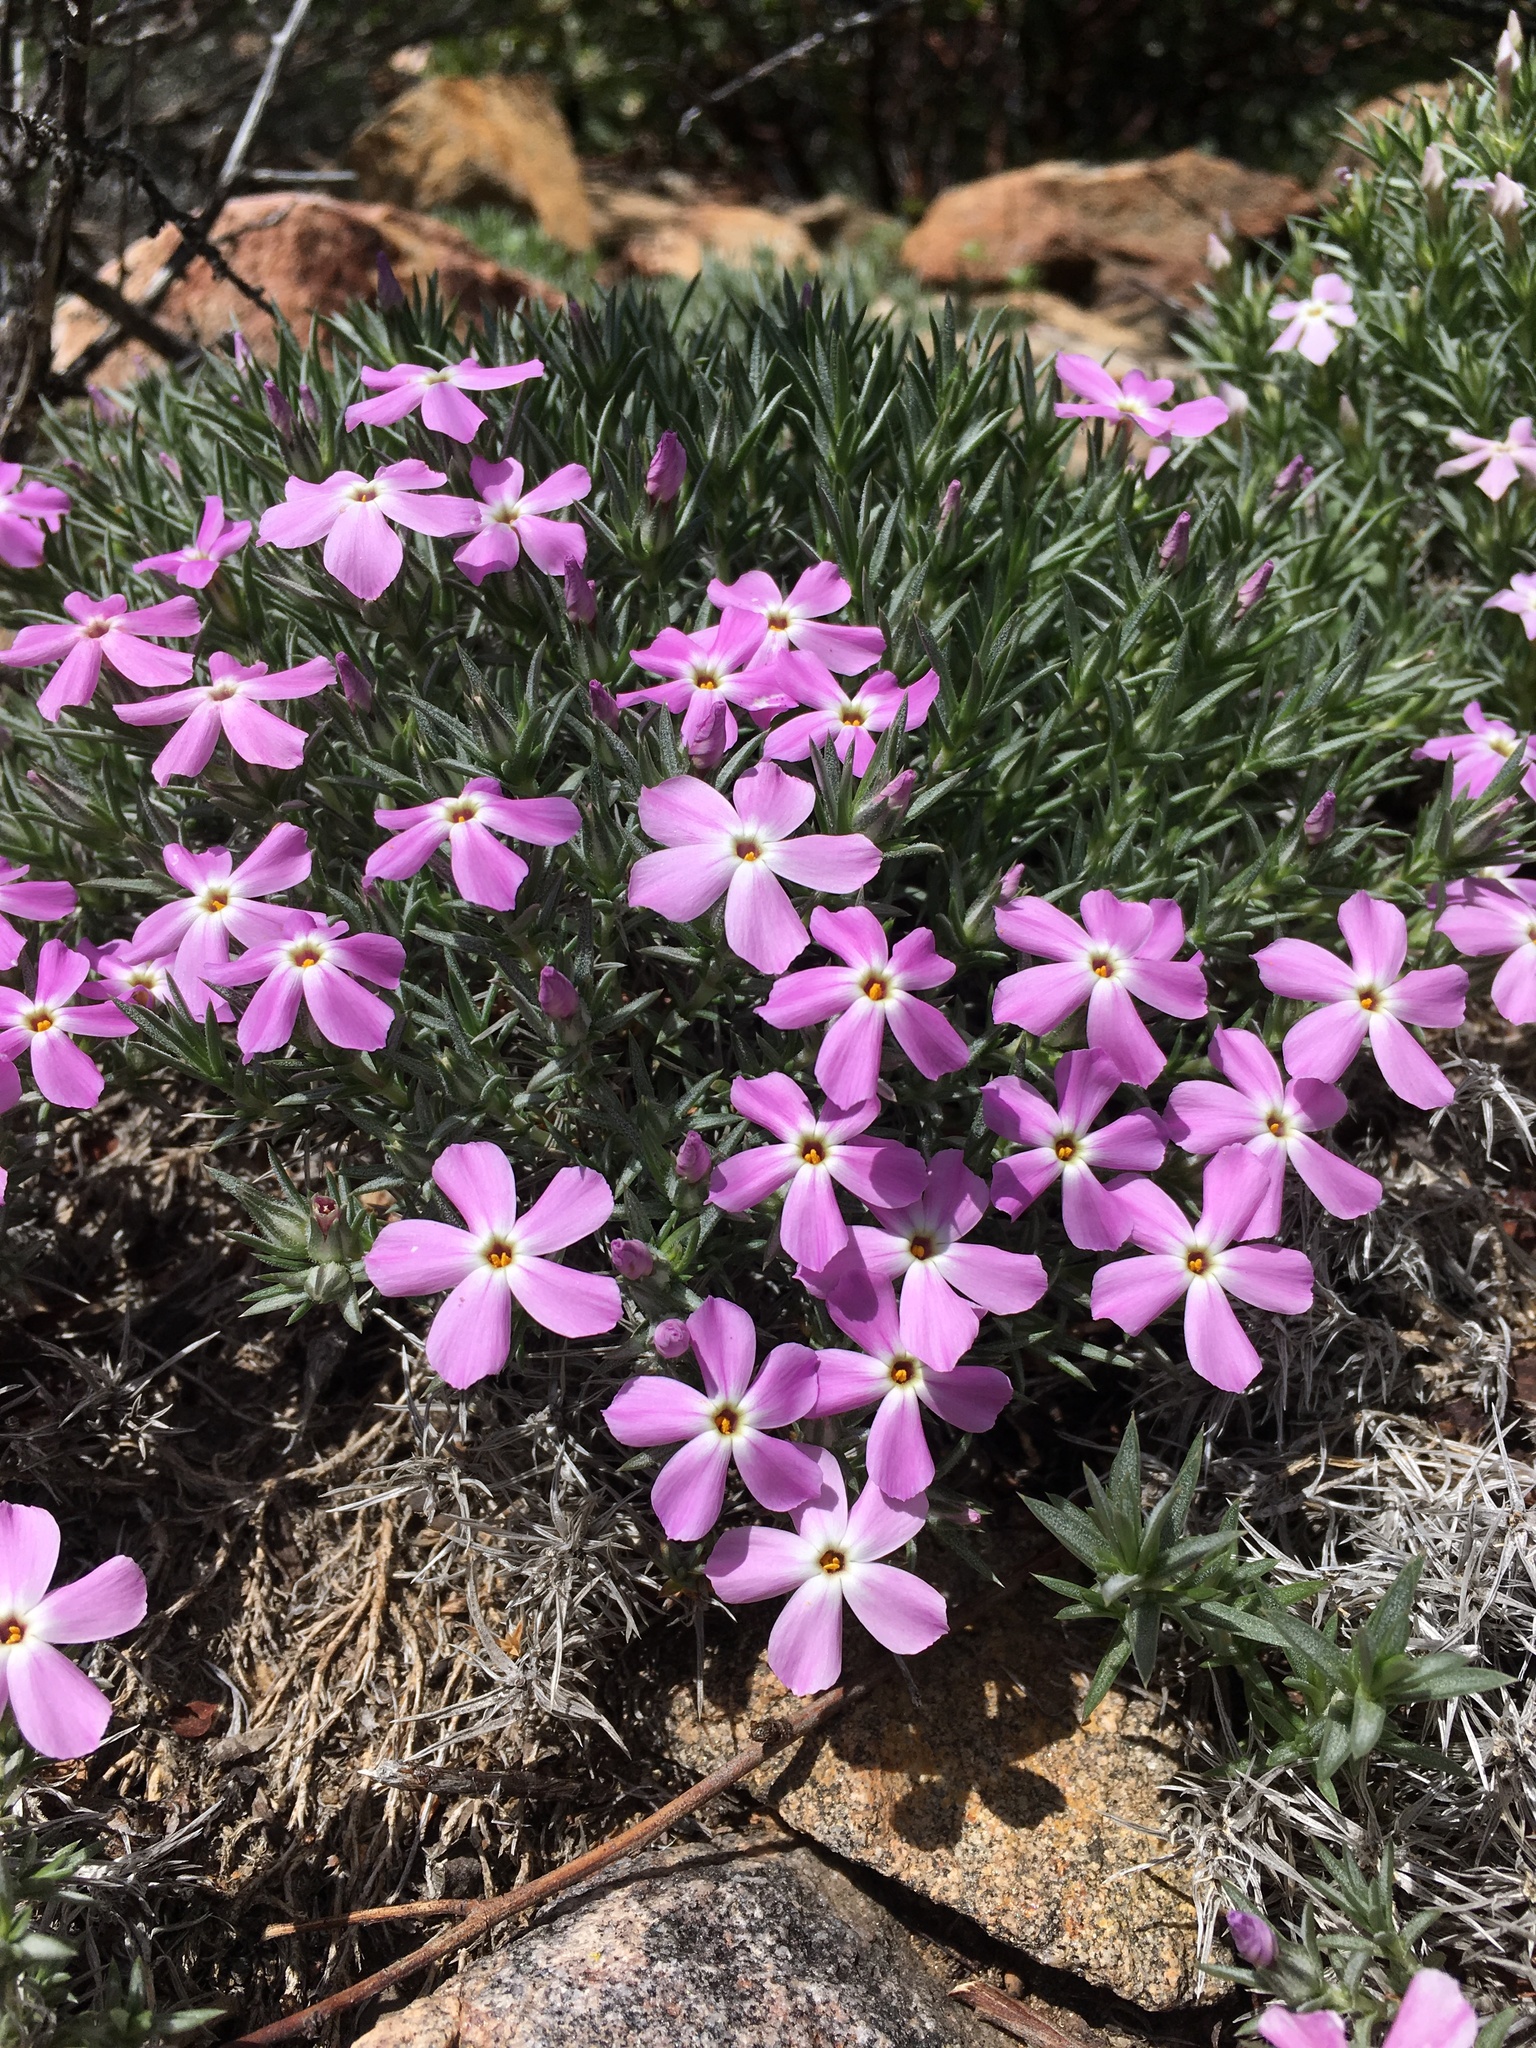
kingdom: Plantae
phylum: Tracheophyta
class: Magnoliopsida
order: Ericales
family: Polemoniaceae
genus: Phlox
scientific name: Phlox austromontana
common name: Desert phlox
